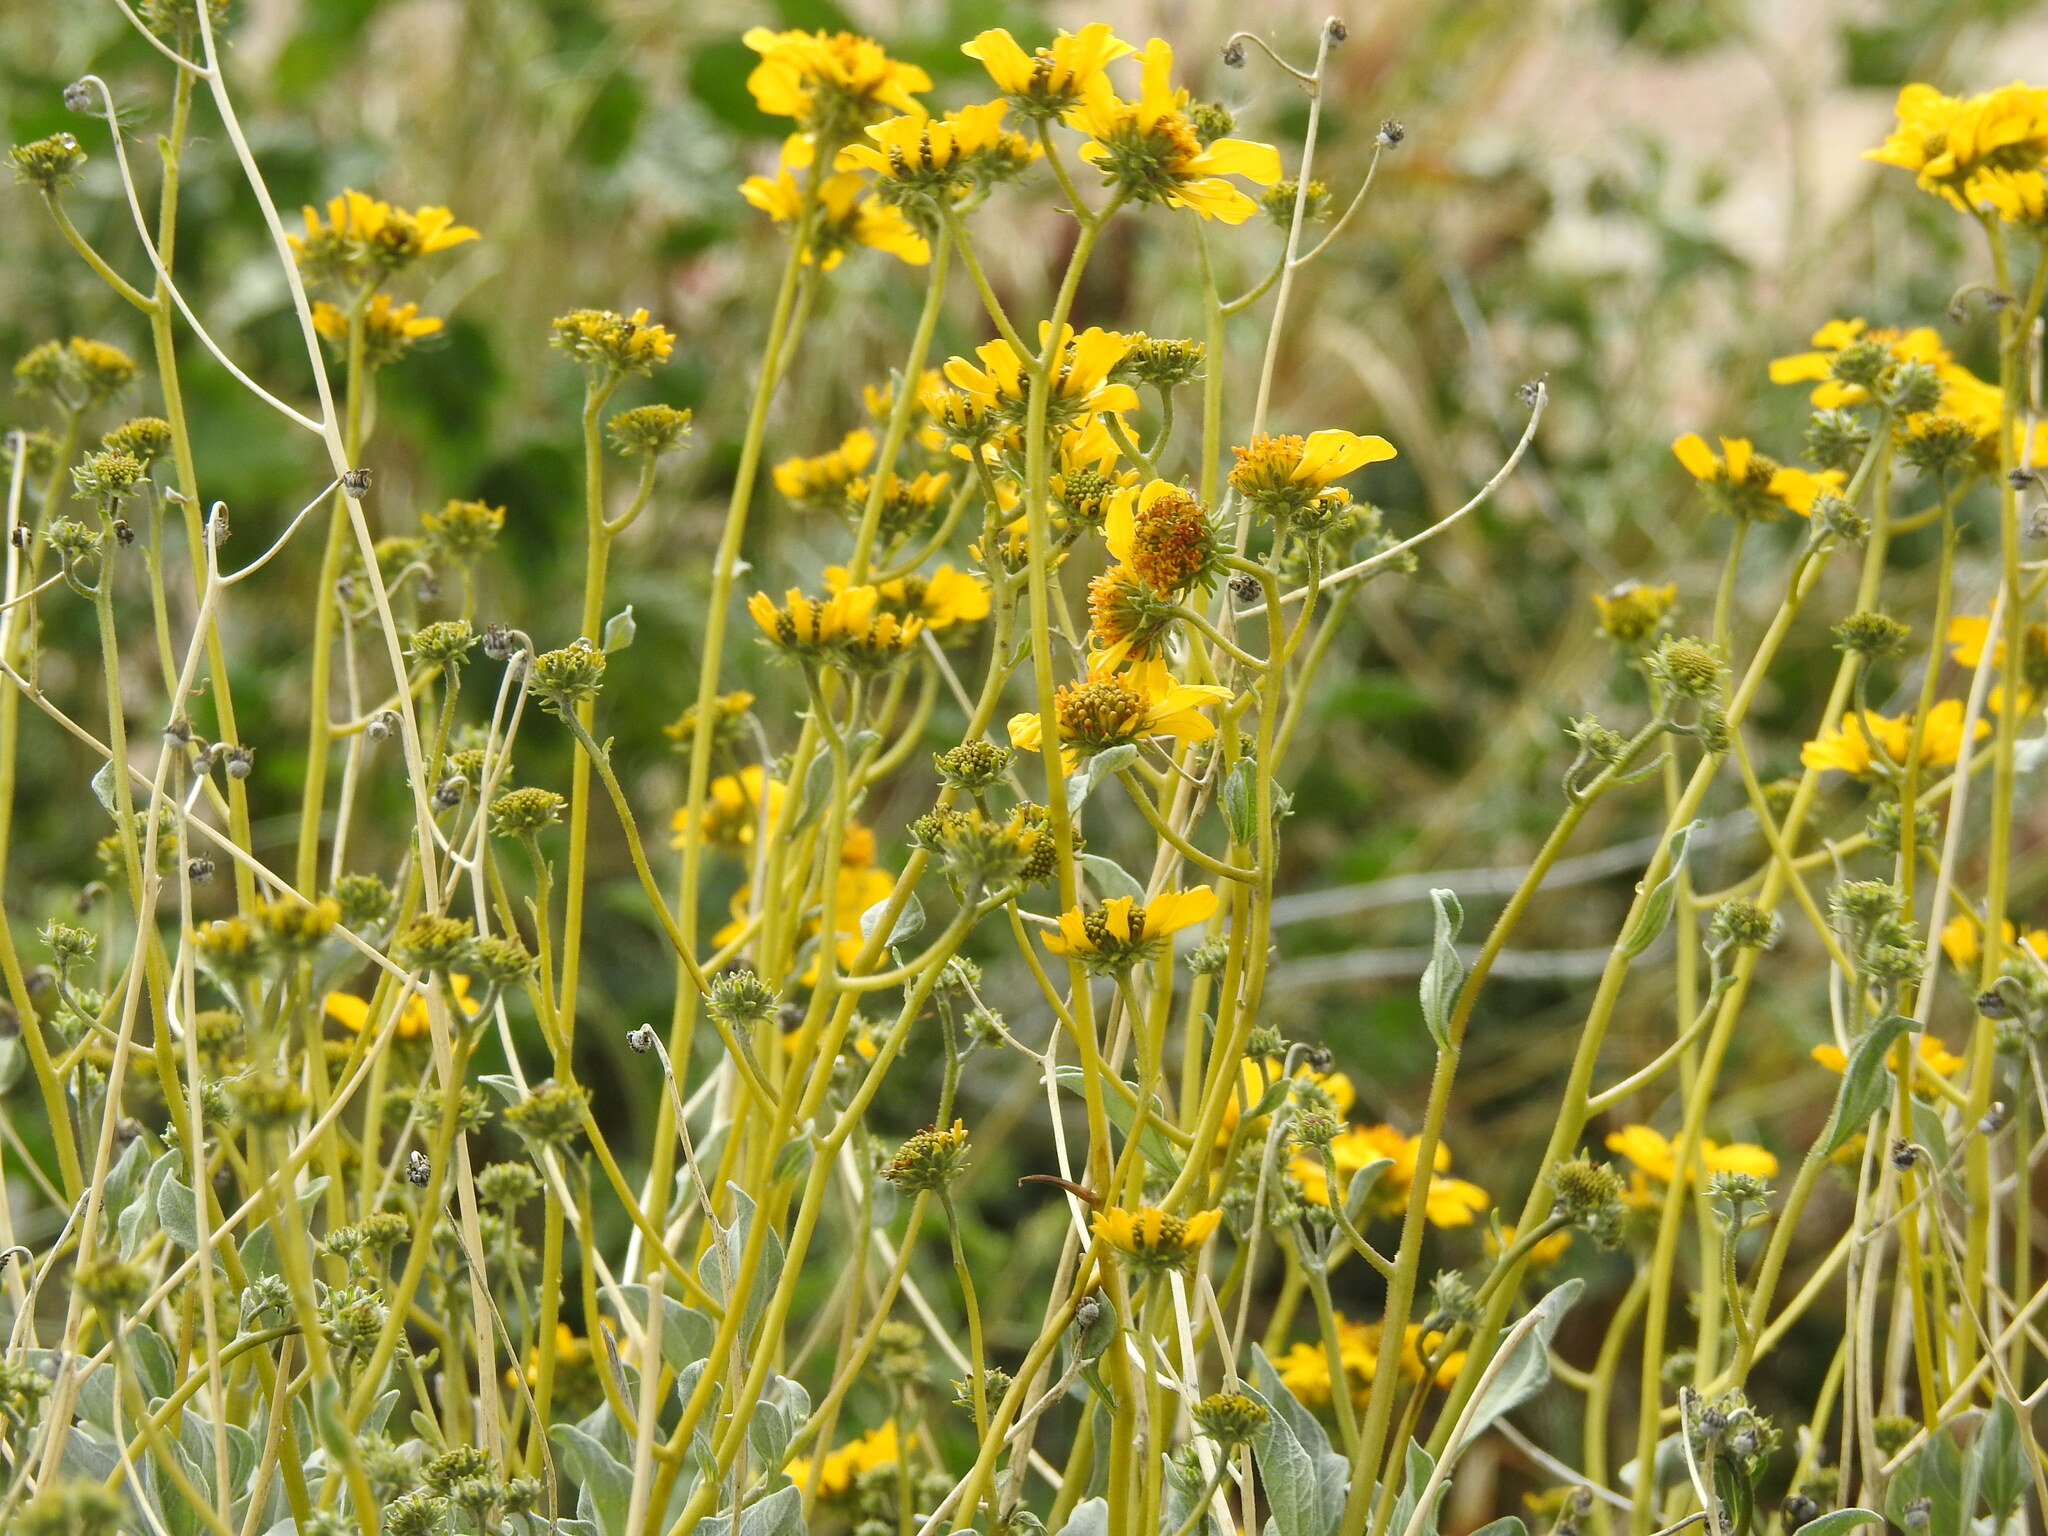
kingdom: Plantae
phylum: Tracheophyta
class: Magnoliopsida
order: Asterales
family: Asteraceae
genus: Encelia
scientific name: Encelia farinosa
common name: Brittlebush
